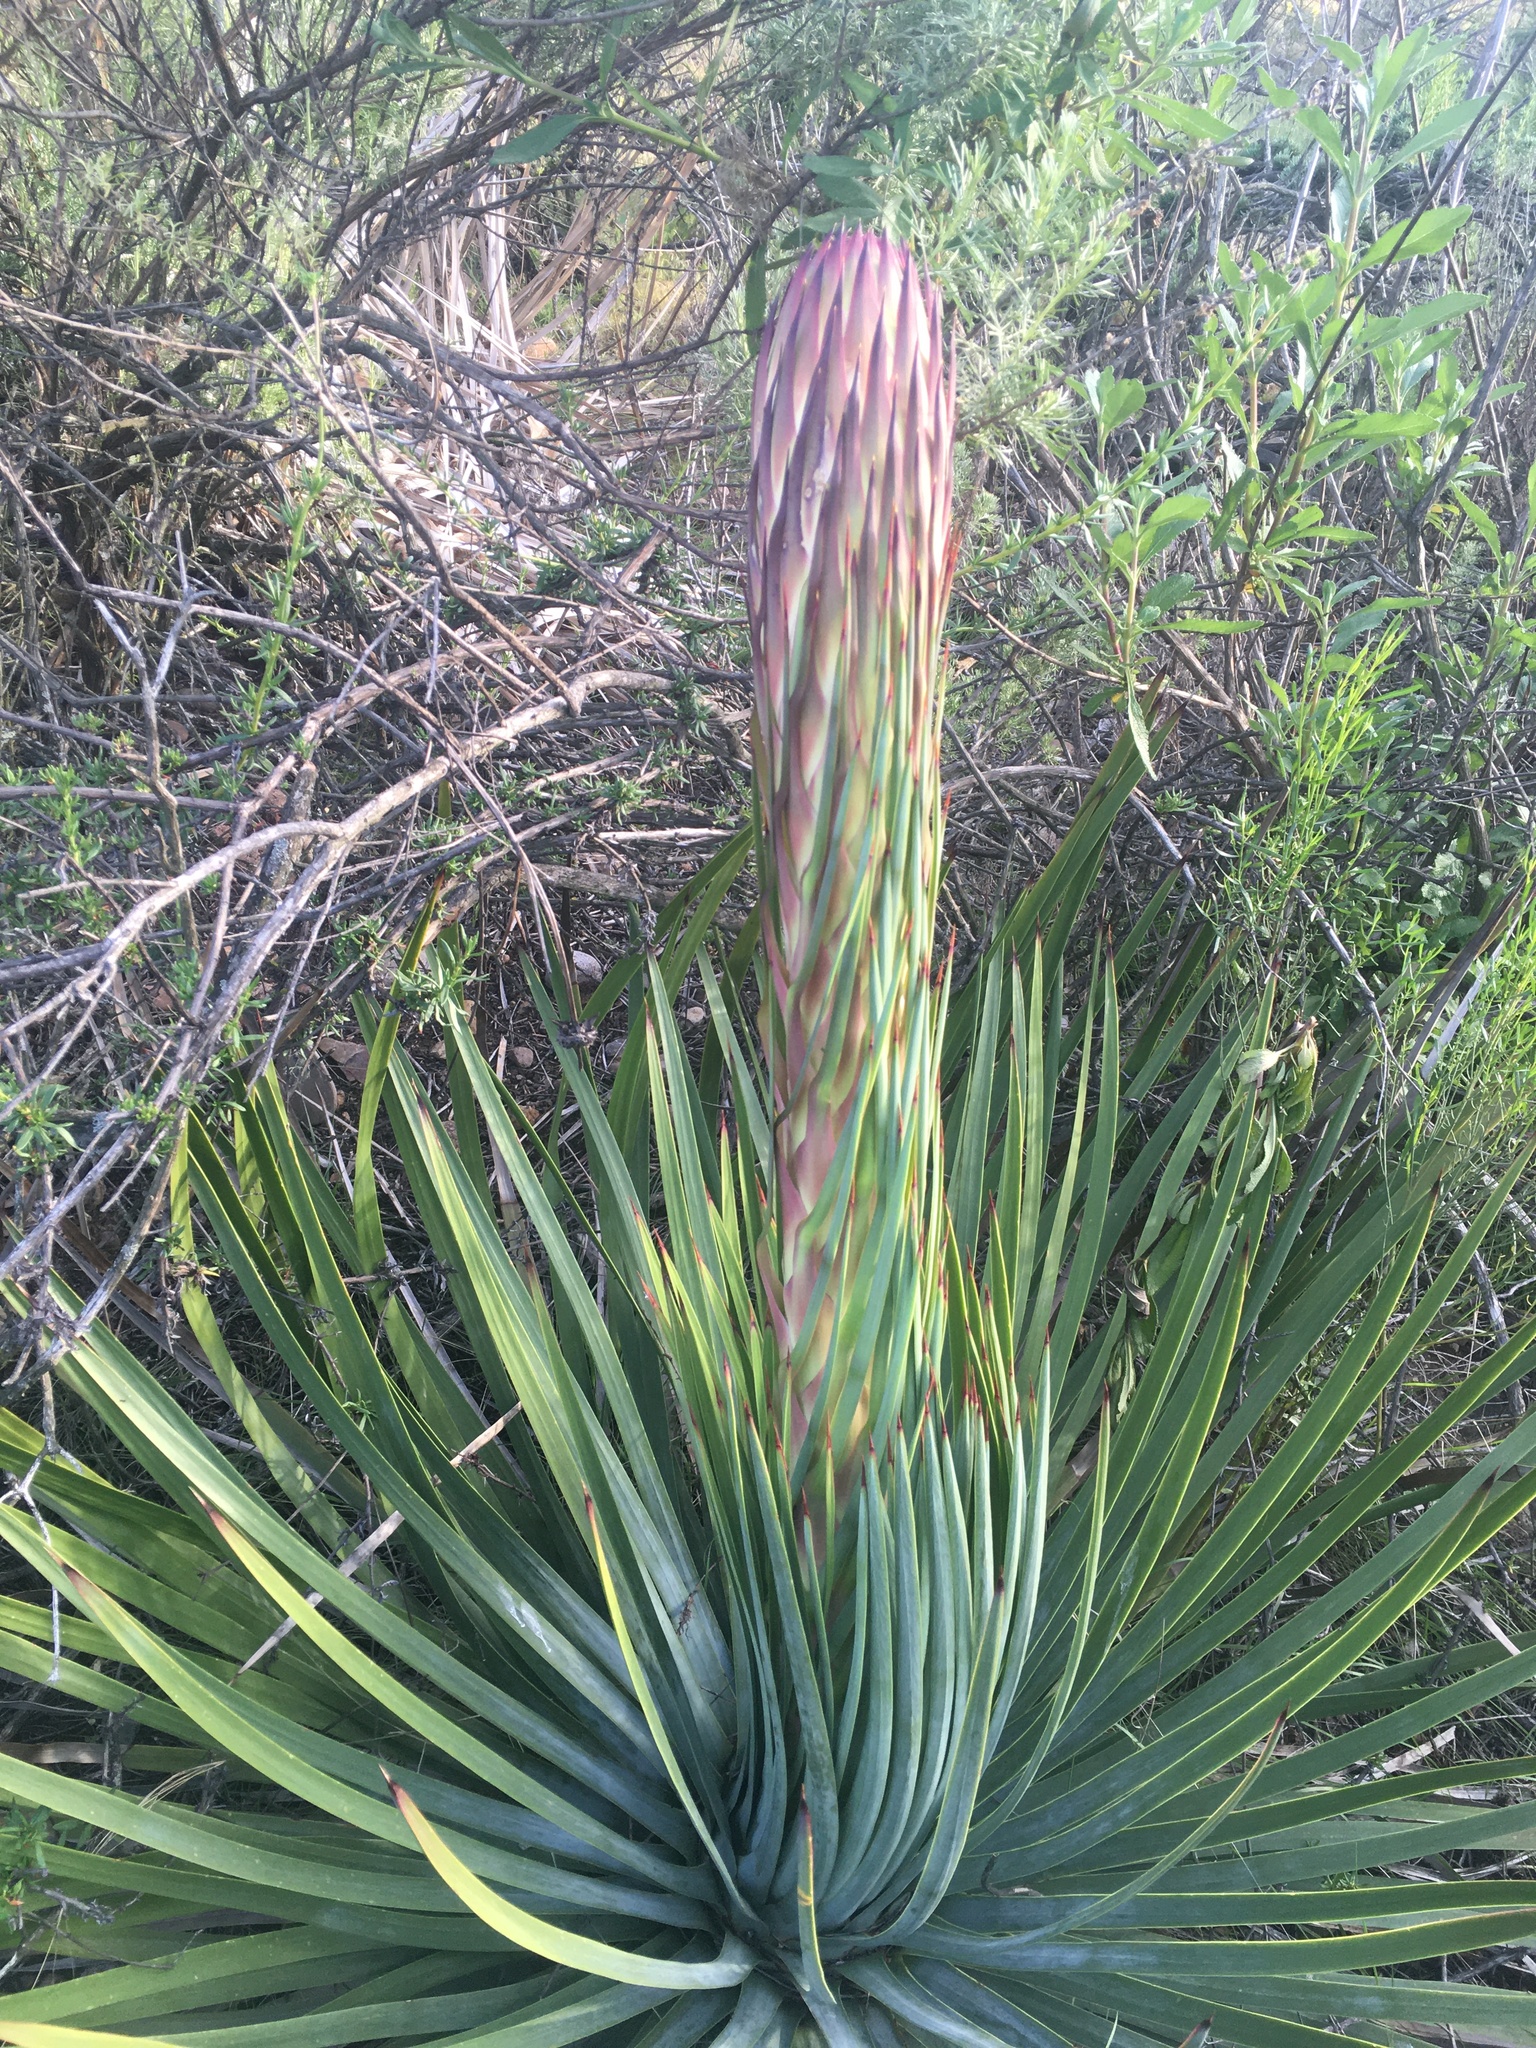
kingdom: Plantae
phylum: Tracheophyta
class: Liliopsida
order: Asparagales
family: Asparagaceae
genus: Hesperoyucca
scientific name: Hesperoyucca whipplei
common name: Our lord's-candle
